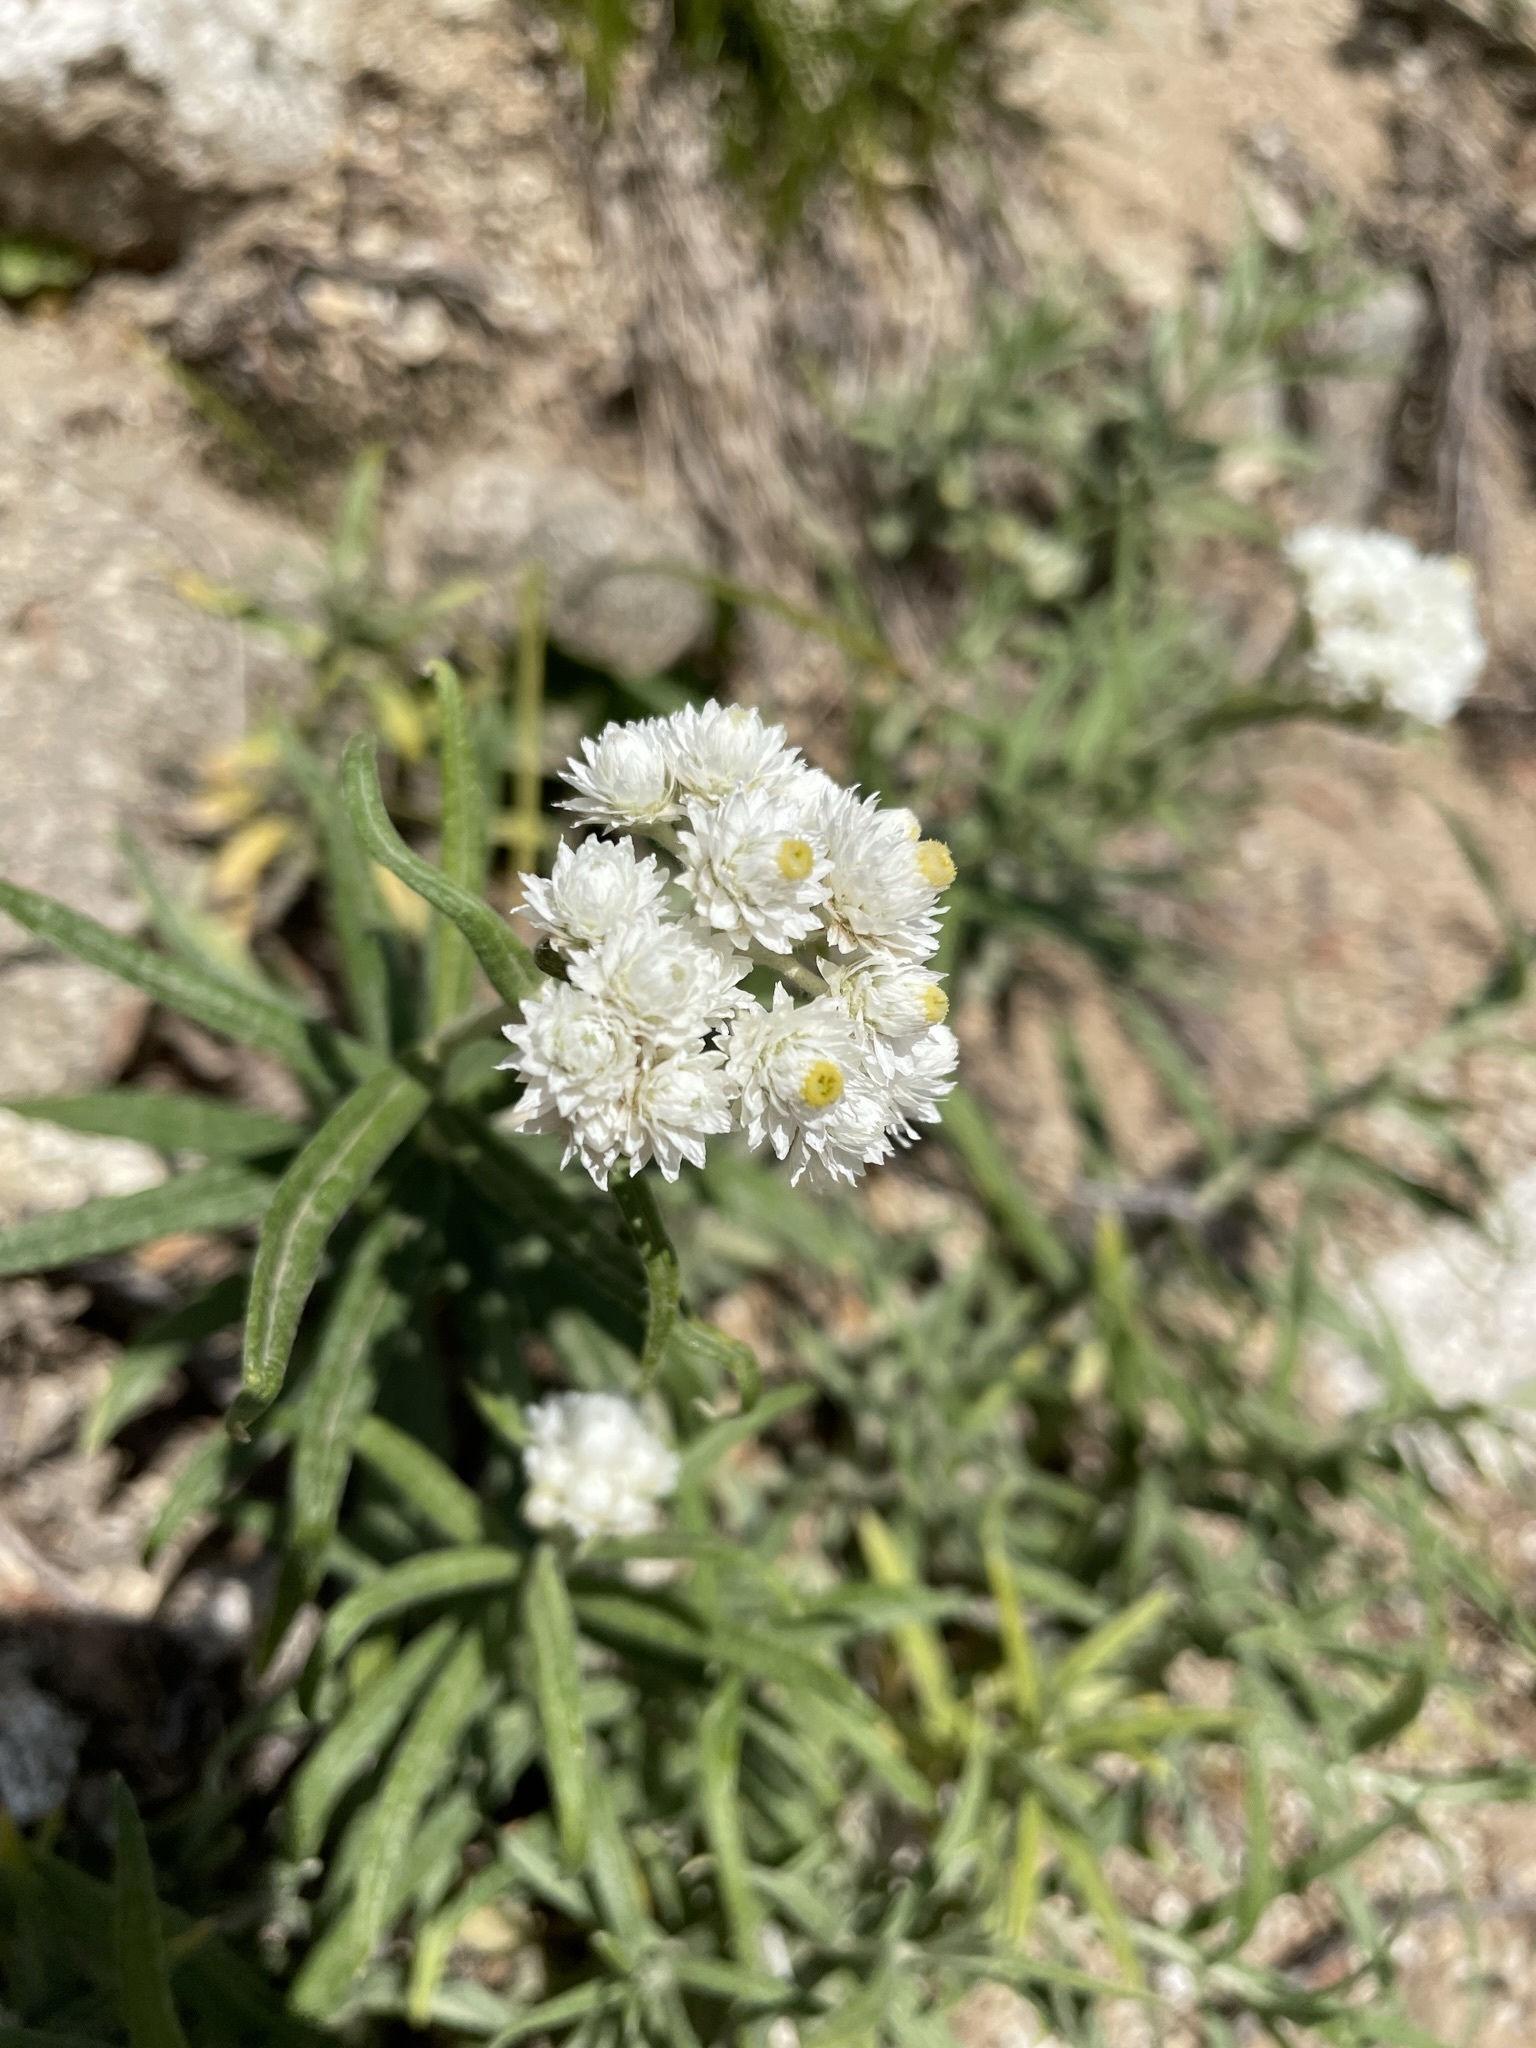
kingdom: Plantae
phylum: Tracheophyta
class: Magnoliopsida
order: Asterales
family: Asteraceae
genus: Anaphalis
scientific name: Anaphalis margaritacea
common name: Pearly everlasting
